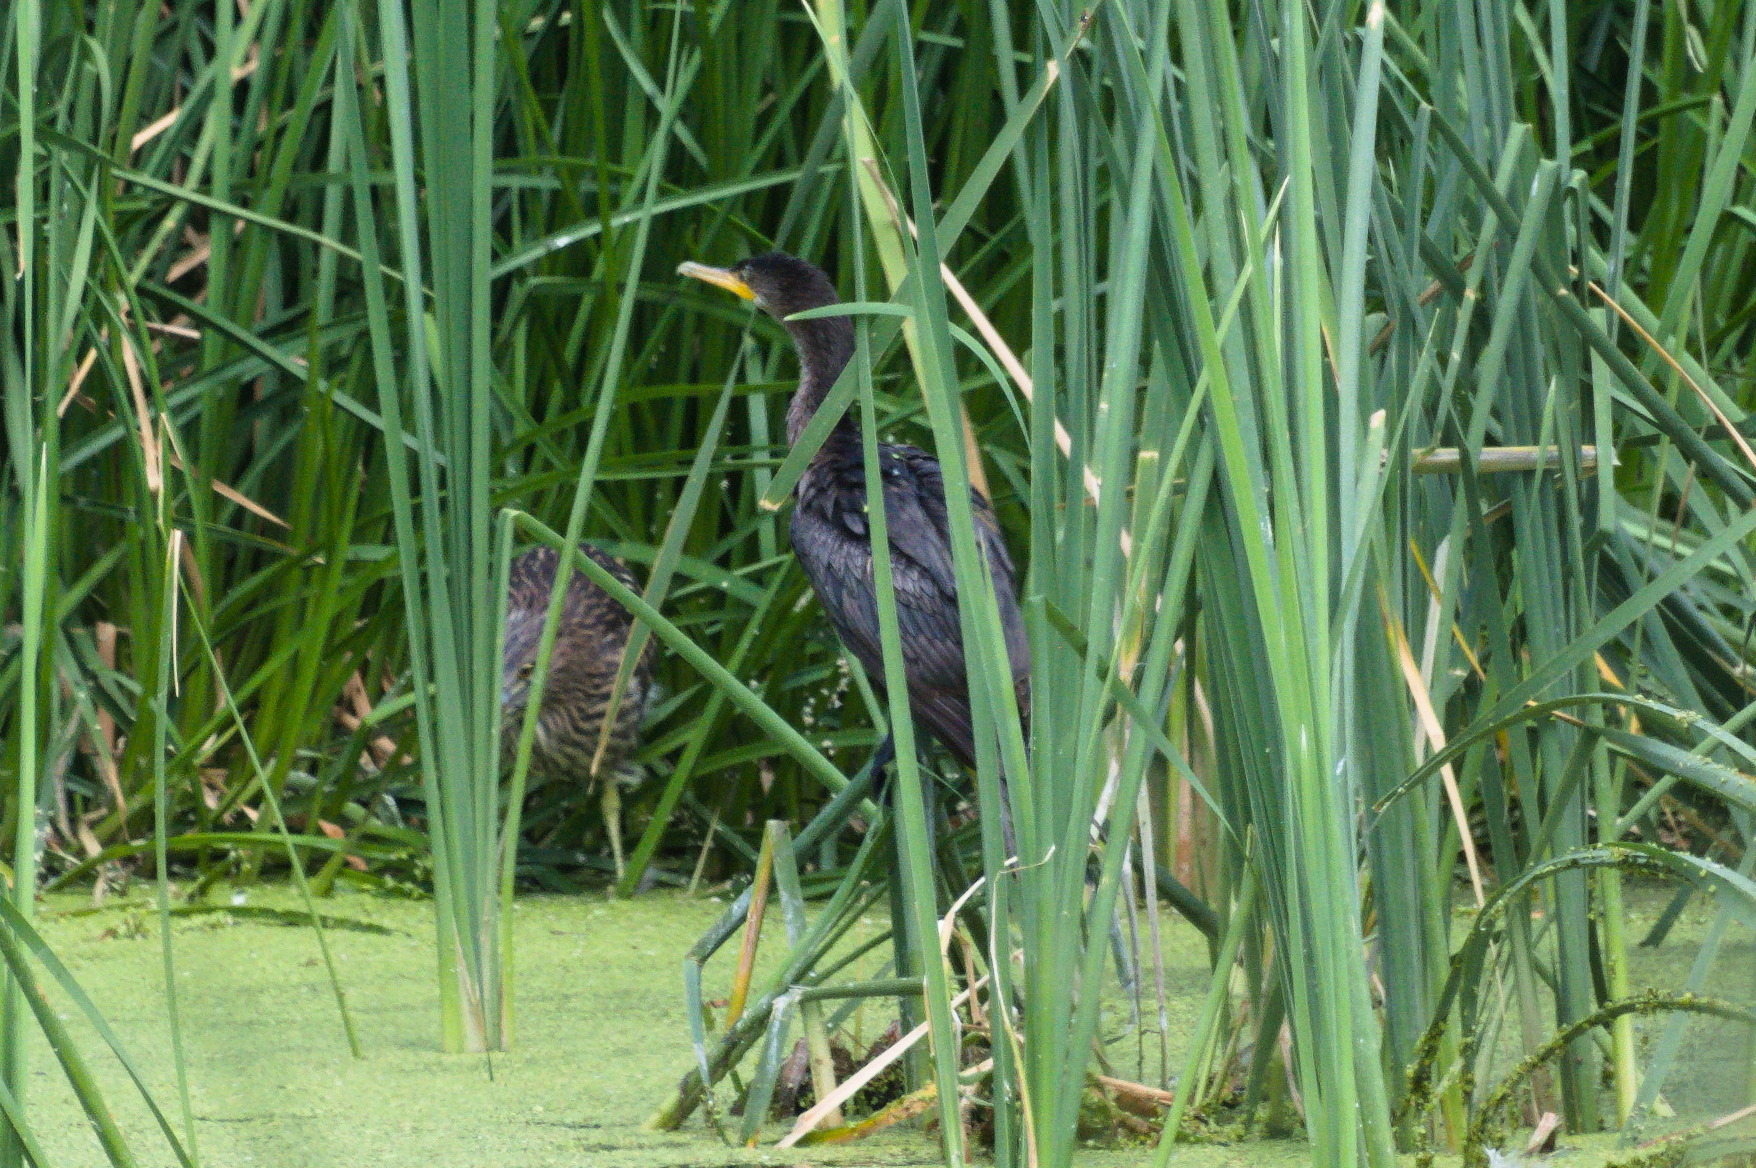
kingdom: Animalia
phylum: Chordata
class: Aves
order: Suliformes
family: Phalacrocoracidae
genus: Phalacrocorax
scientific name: Phalacrocorax brasilianus
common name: Neotropic cormorant
